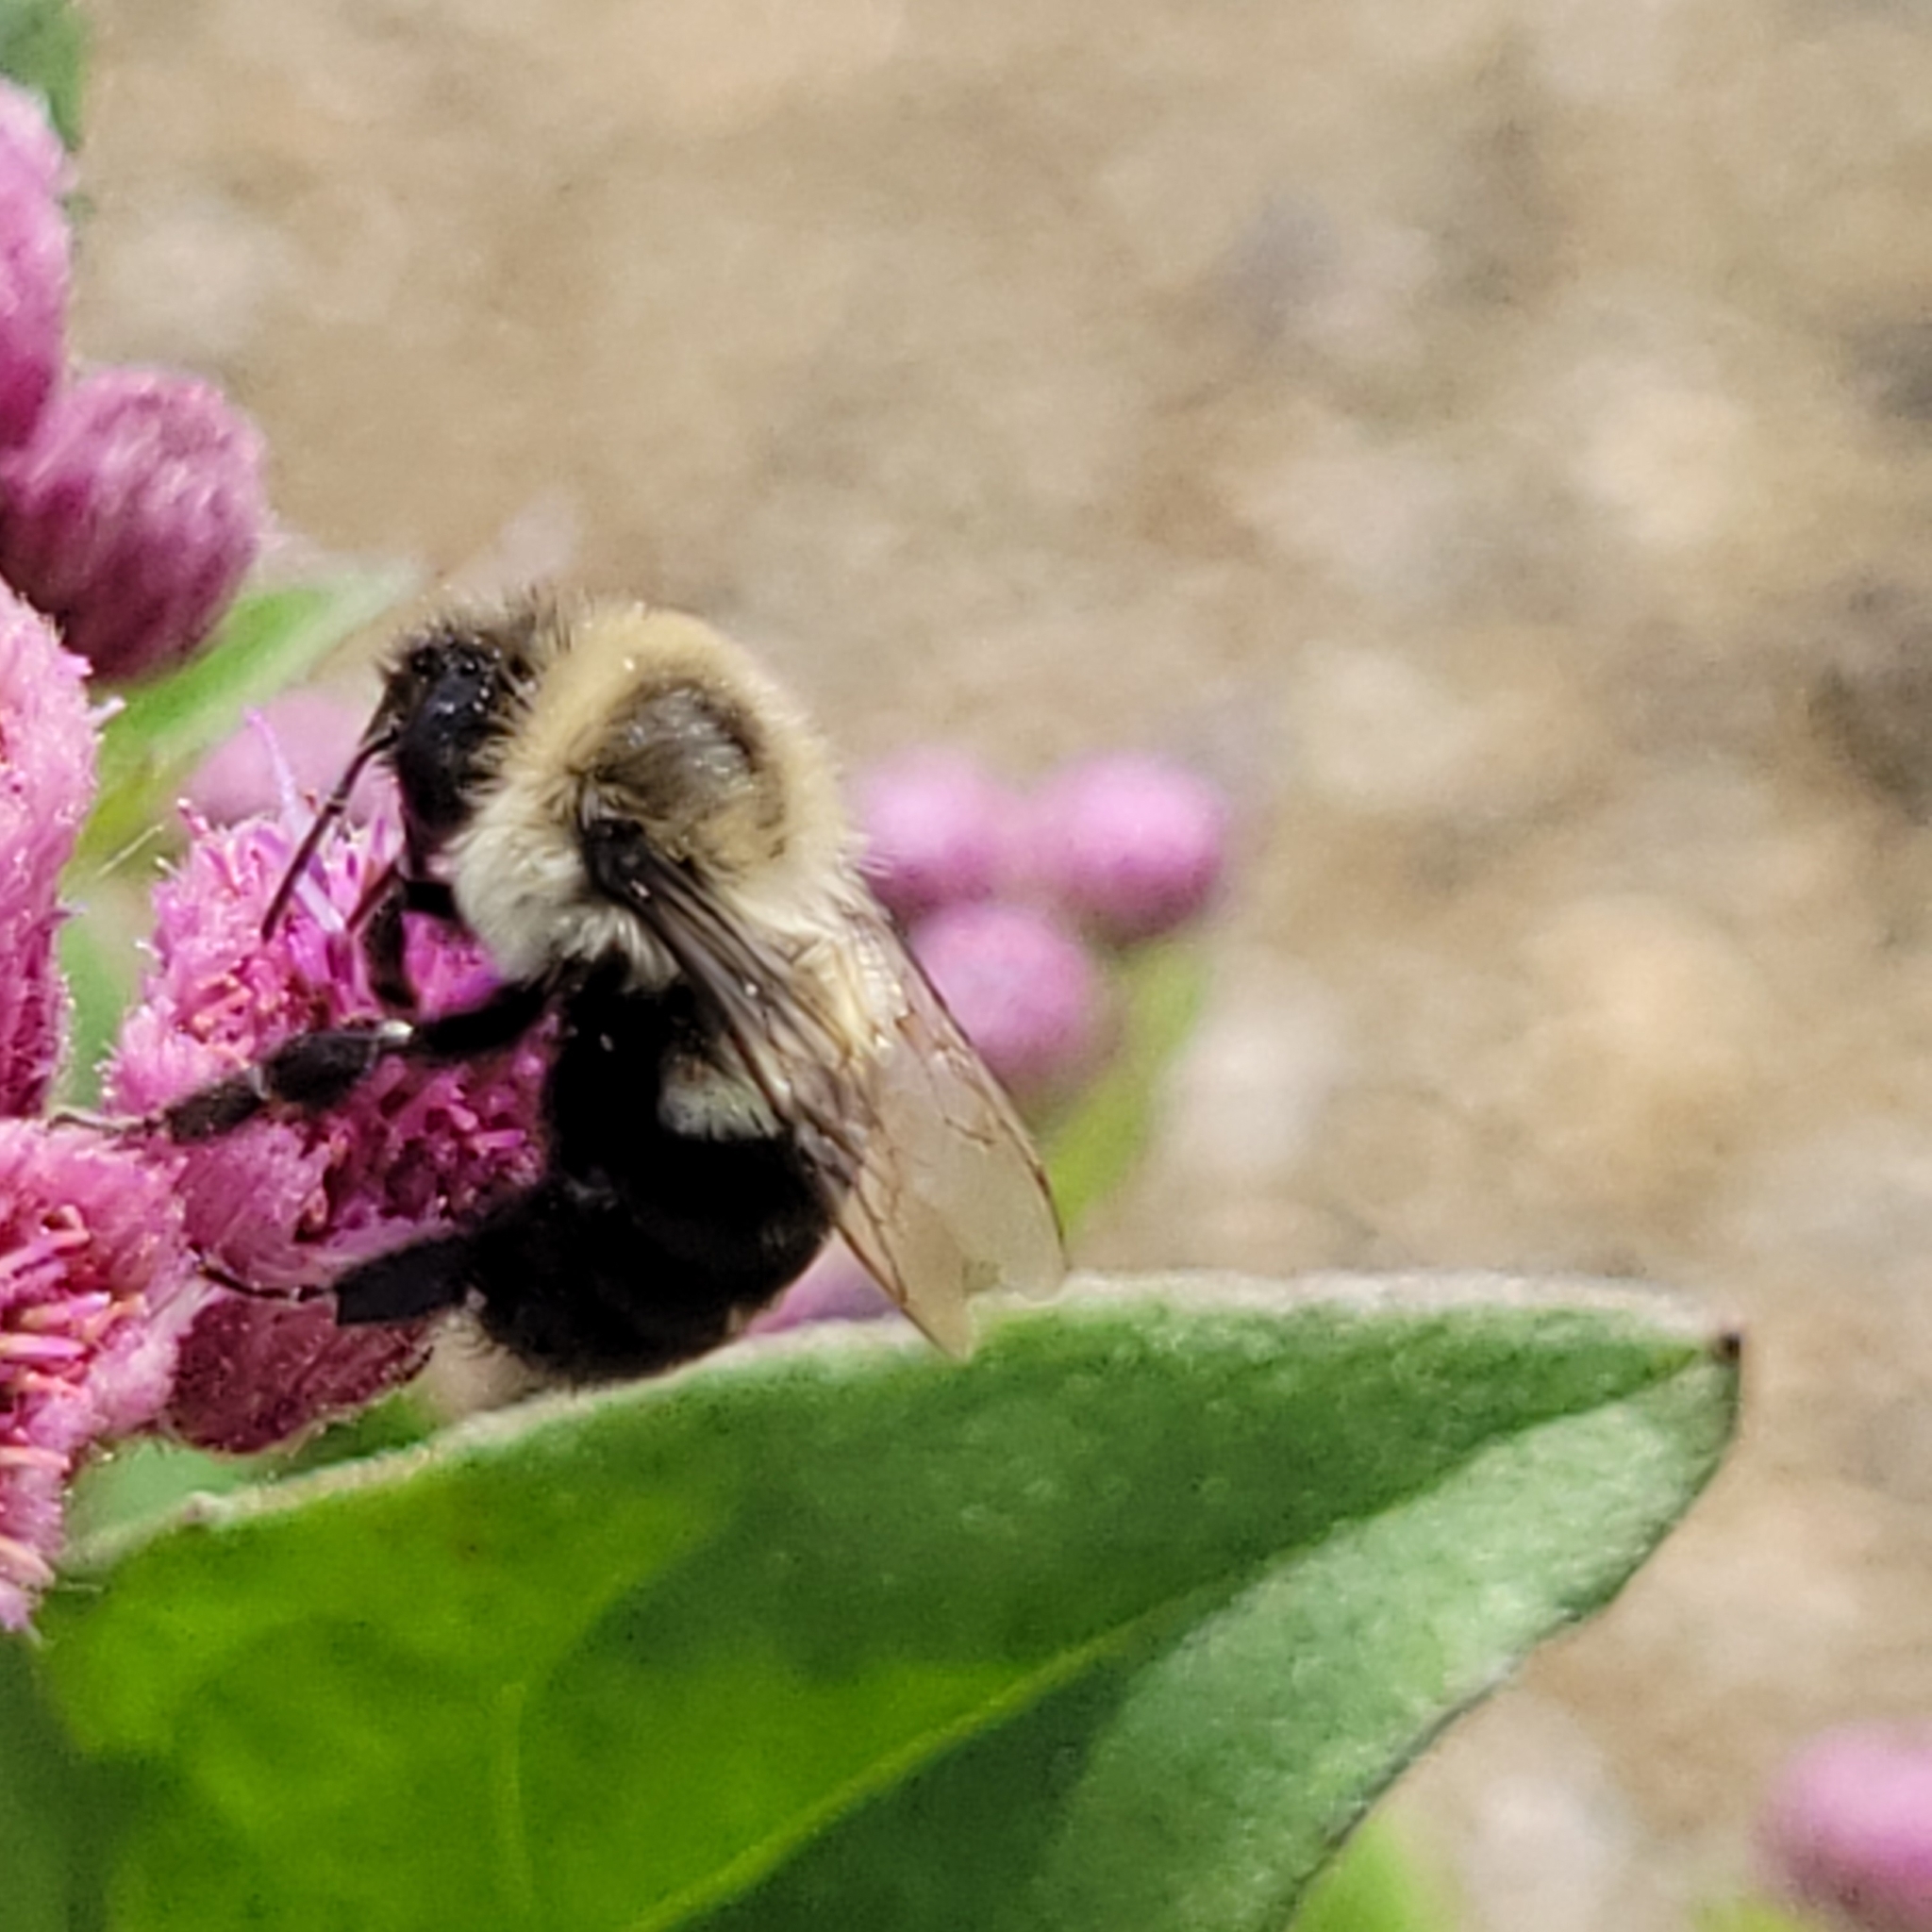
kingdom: Animalia
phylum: Arthropoda
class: Insecta
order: Hymenoptera
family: Apidae
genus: Bombus
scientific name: Bombus impatiens
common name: Common eastern bumble bee
